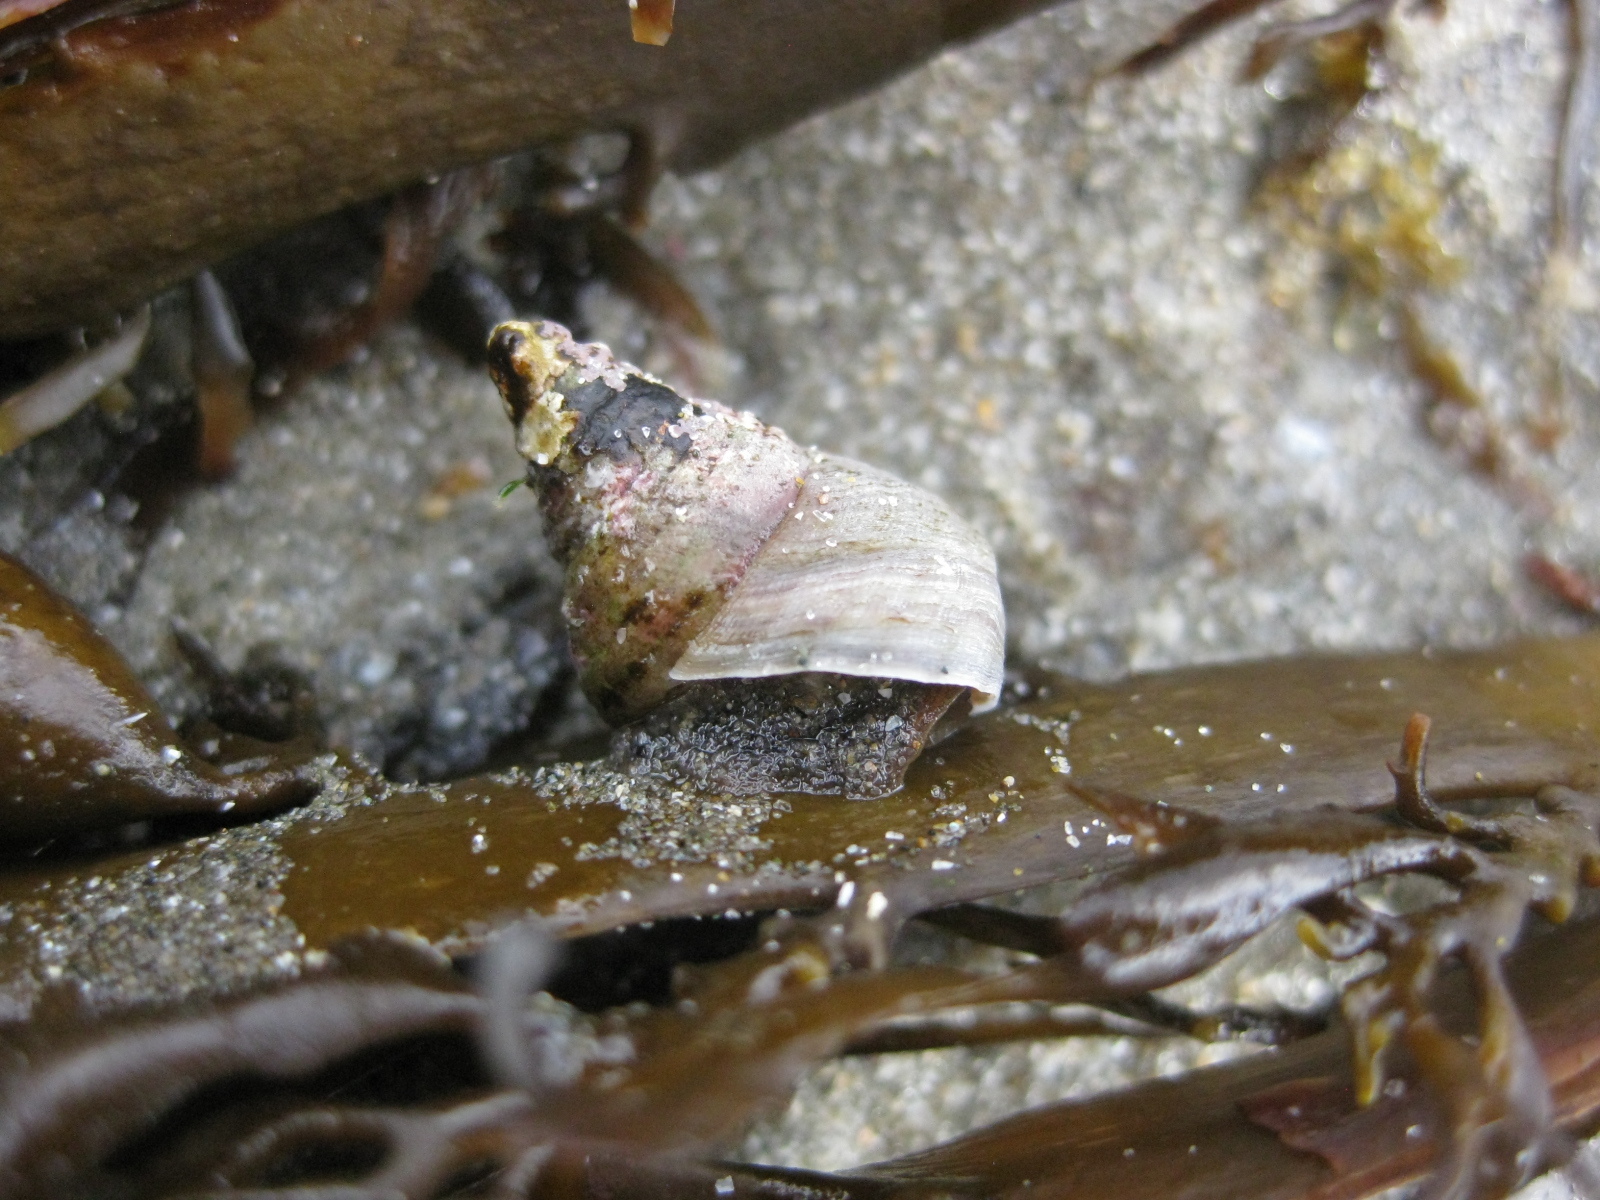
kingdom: Animalia
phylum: Mollusca
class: Gastropoda
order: Trochida
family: Trochidae
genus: Micrelenchus
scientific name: Micrelenchus purpureus
